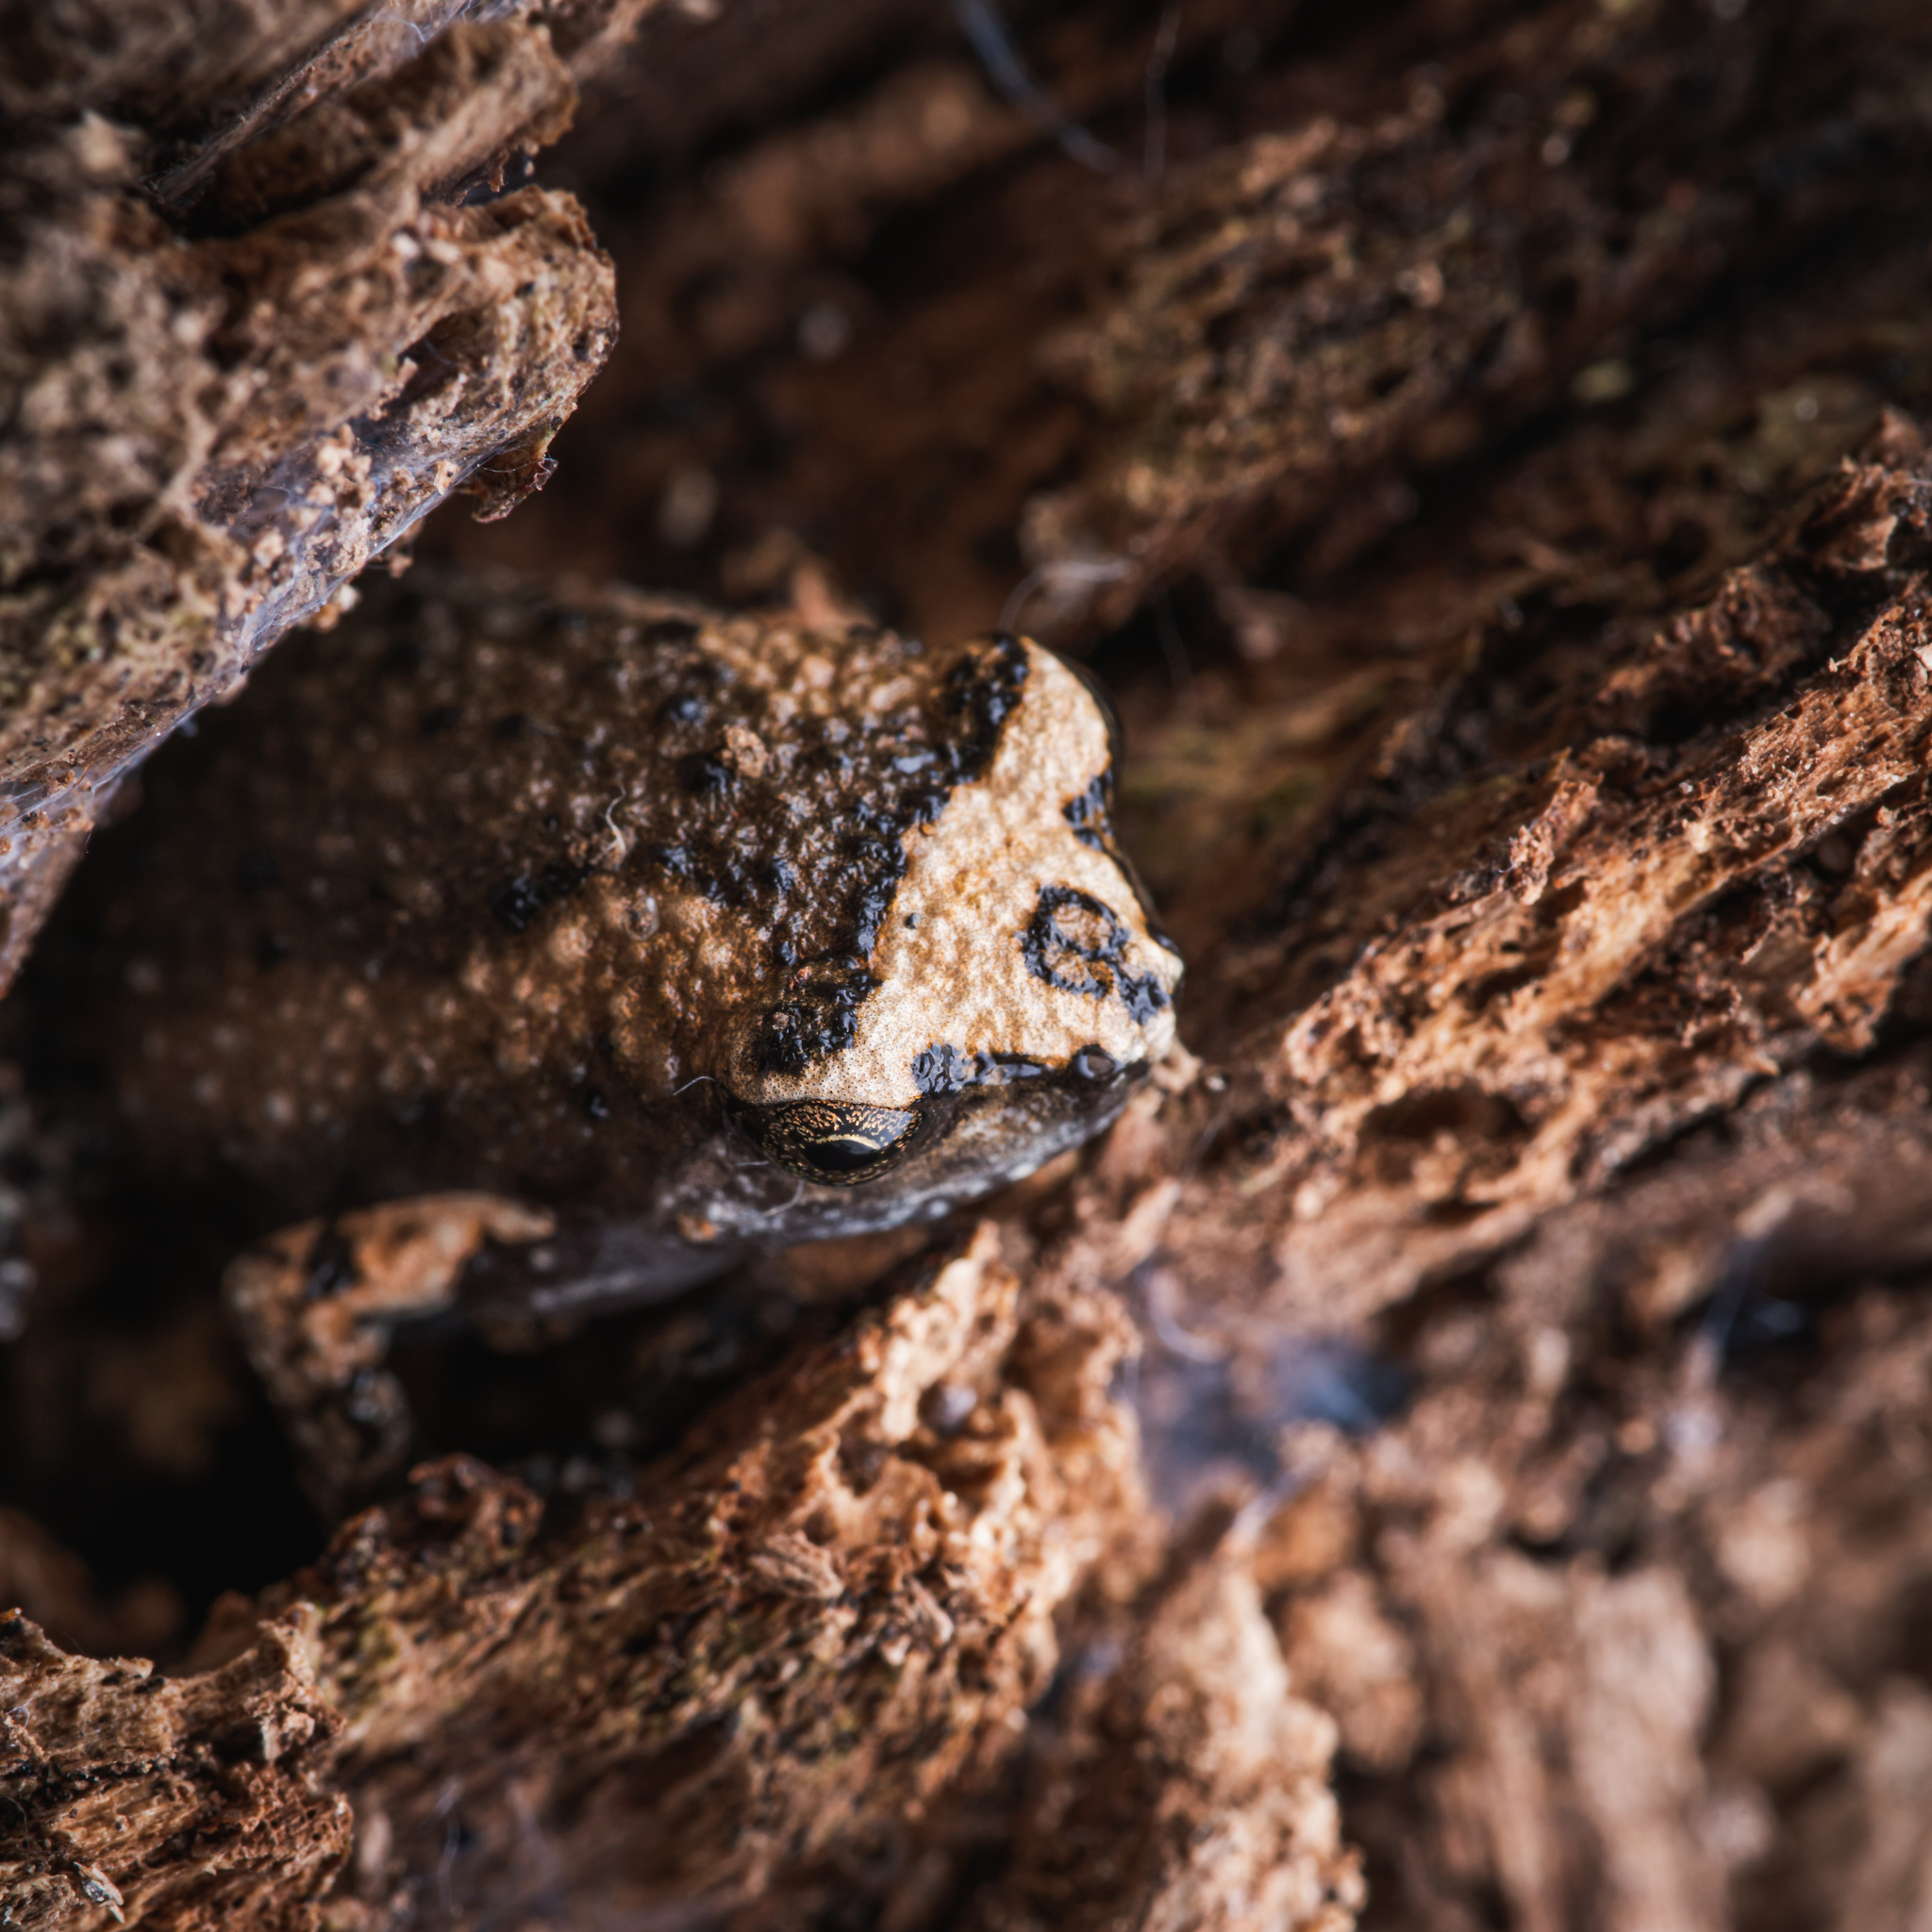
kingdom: Animalia
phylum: Chordata
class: Amphibia
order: Anura
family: Microhylidae
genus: Kaloula
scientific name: Kaloula pulchra
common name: Common,banded bullfrog
